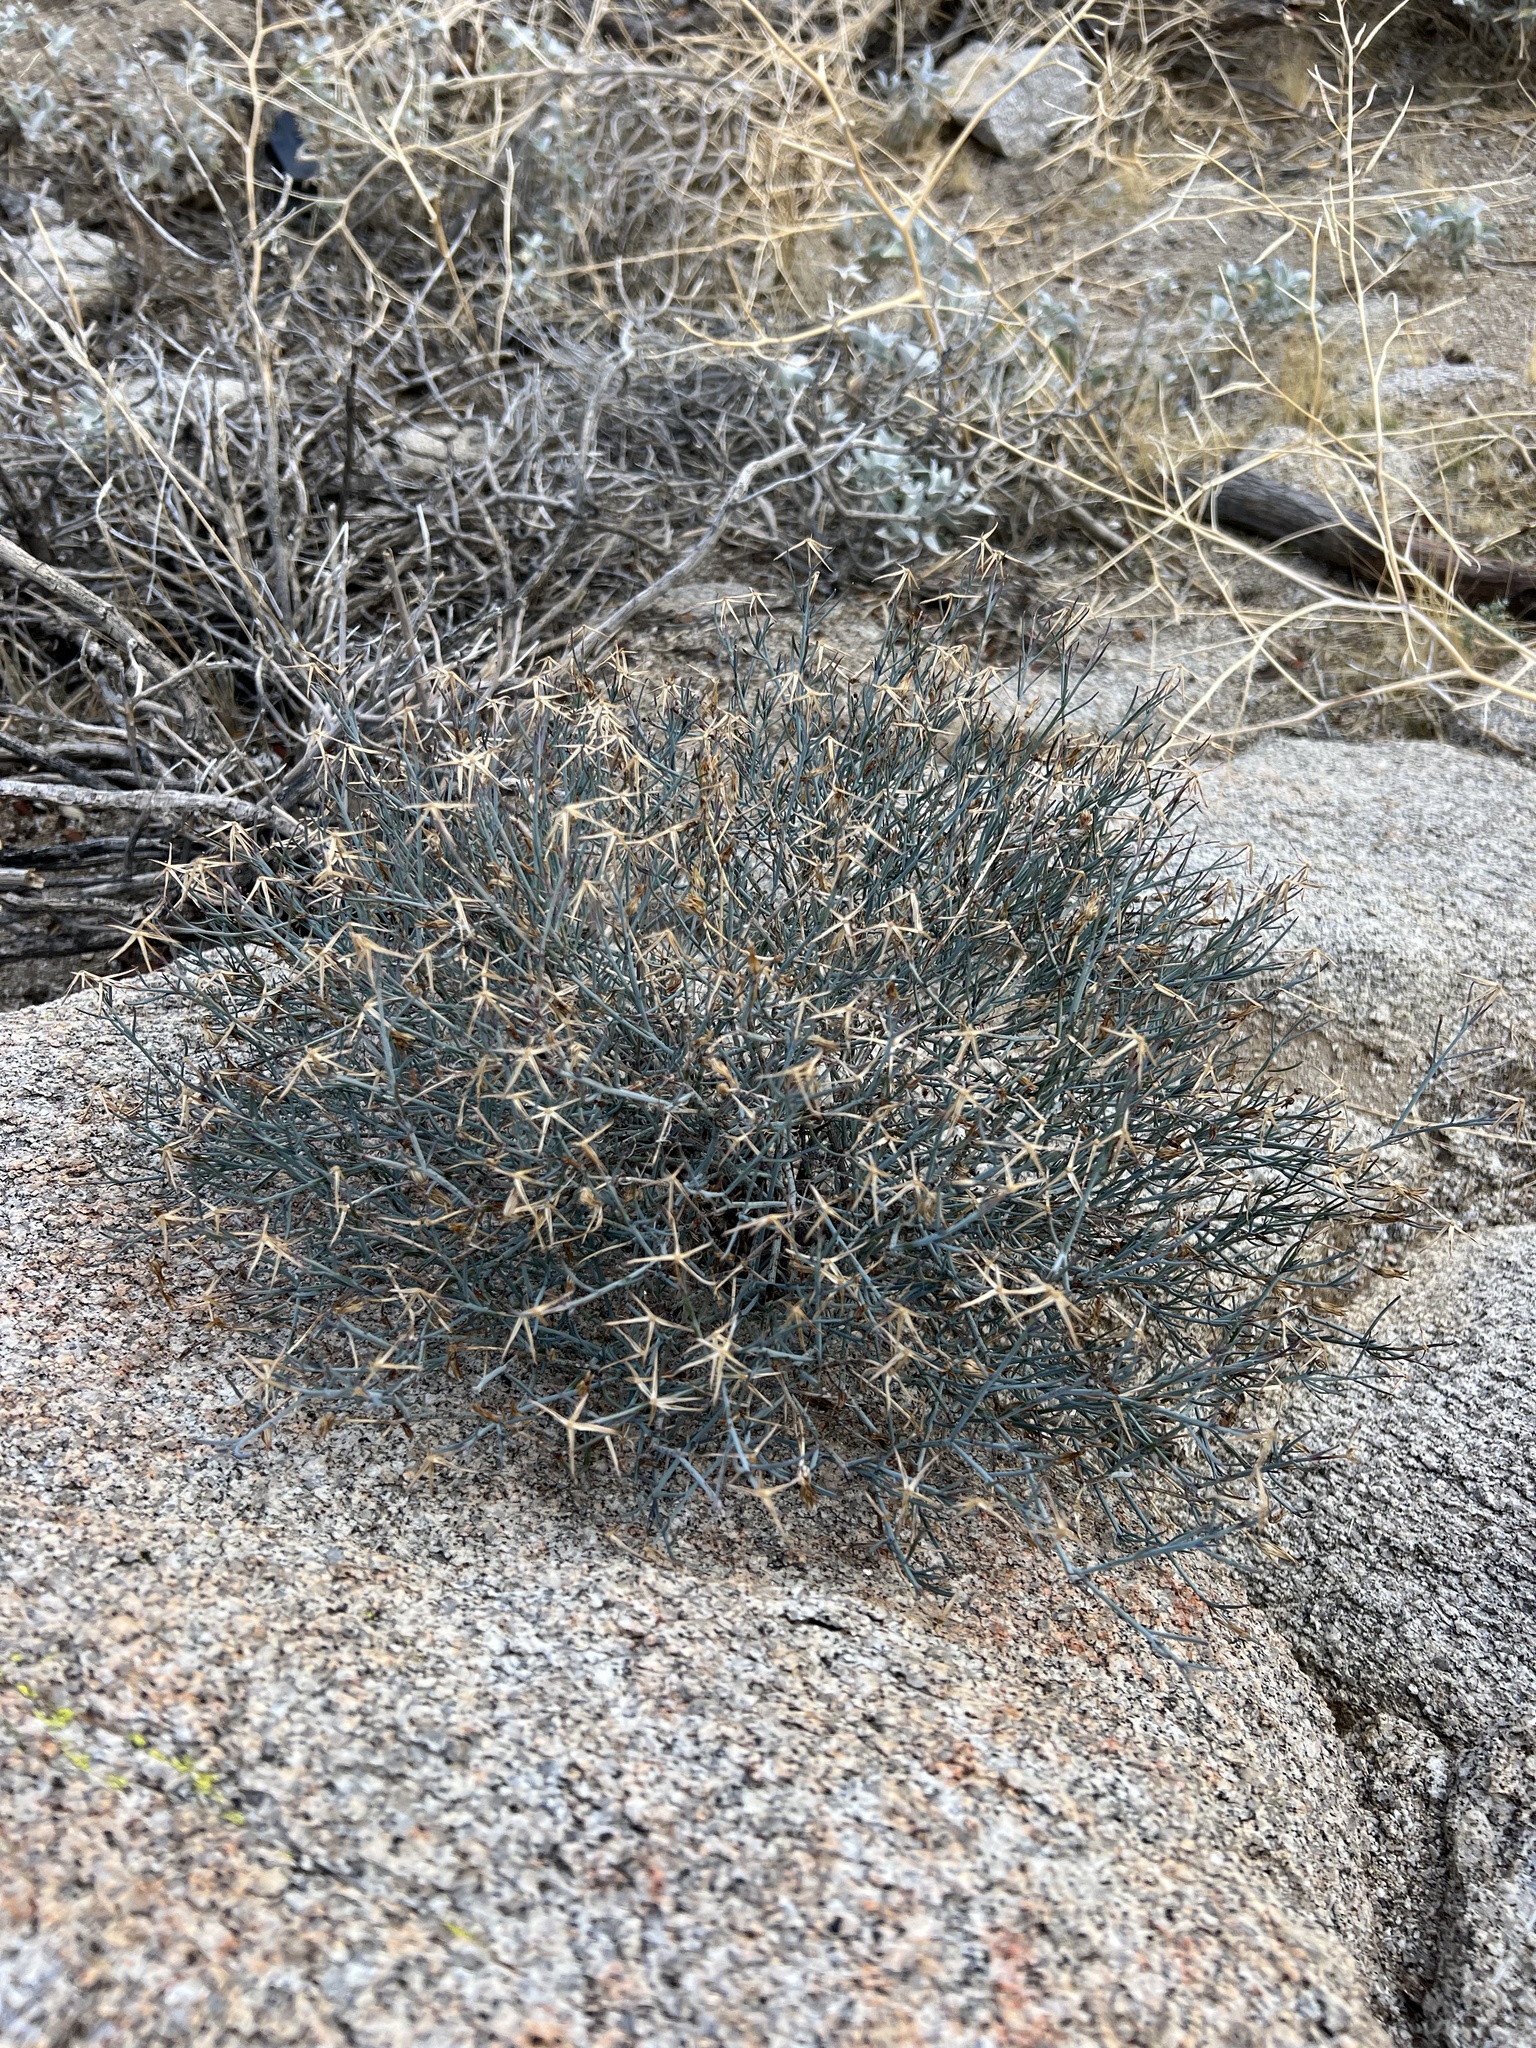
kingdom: Plantae
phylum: Tracheophyta
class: Magnoliopsida
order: Asterales
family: Asteraceae
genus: Porophyllum
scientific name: Porophyllum gracile
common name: Odora
